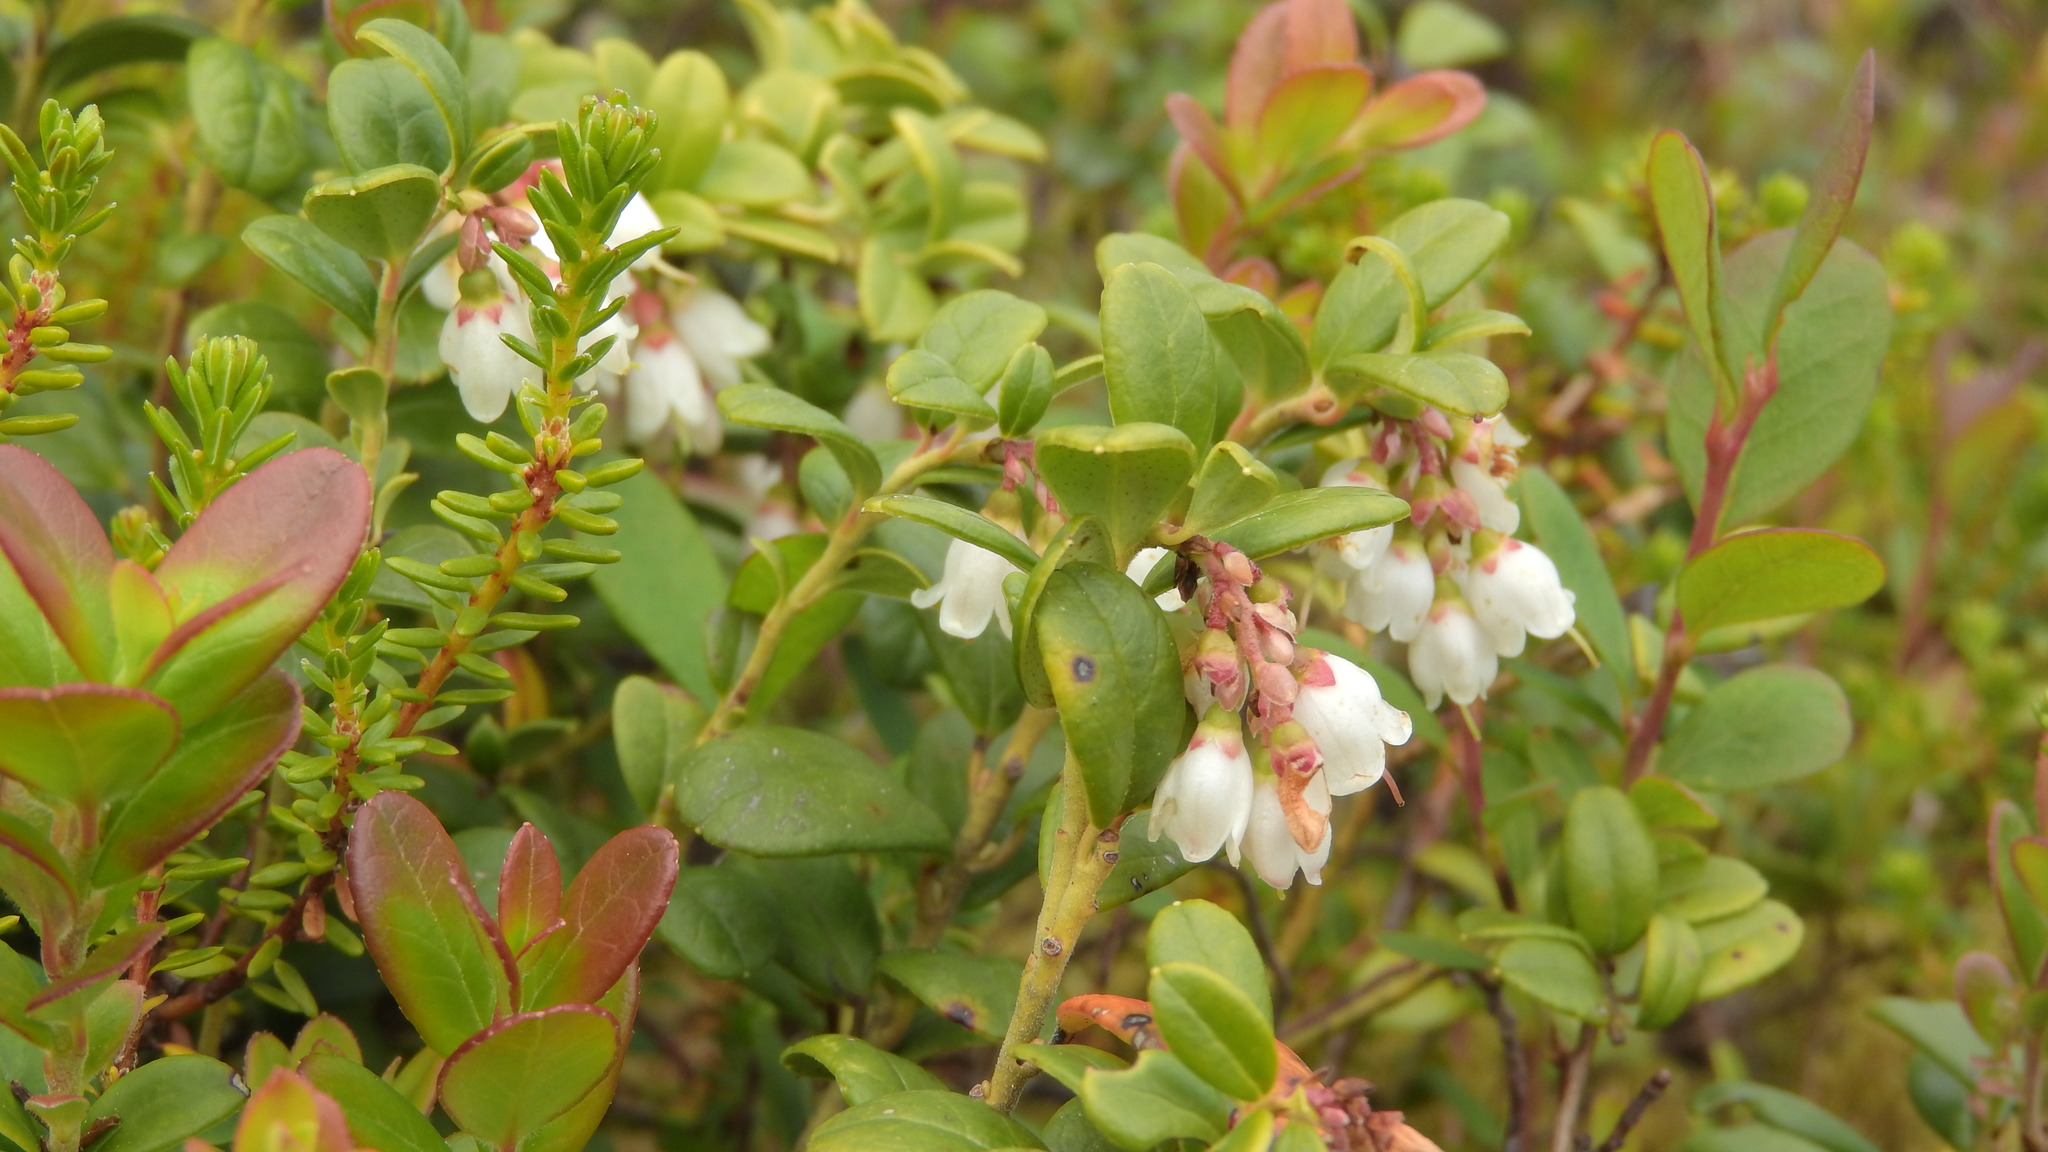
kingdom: Plantae
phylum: Tracheophyta
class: Magnoliopsida
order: Ericales
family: Ericaceae
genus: Vaccinium
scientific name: Vaccinium vitis-idaea
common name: Cowberry
